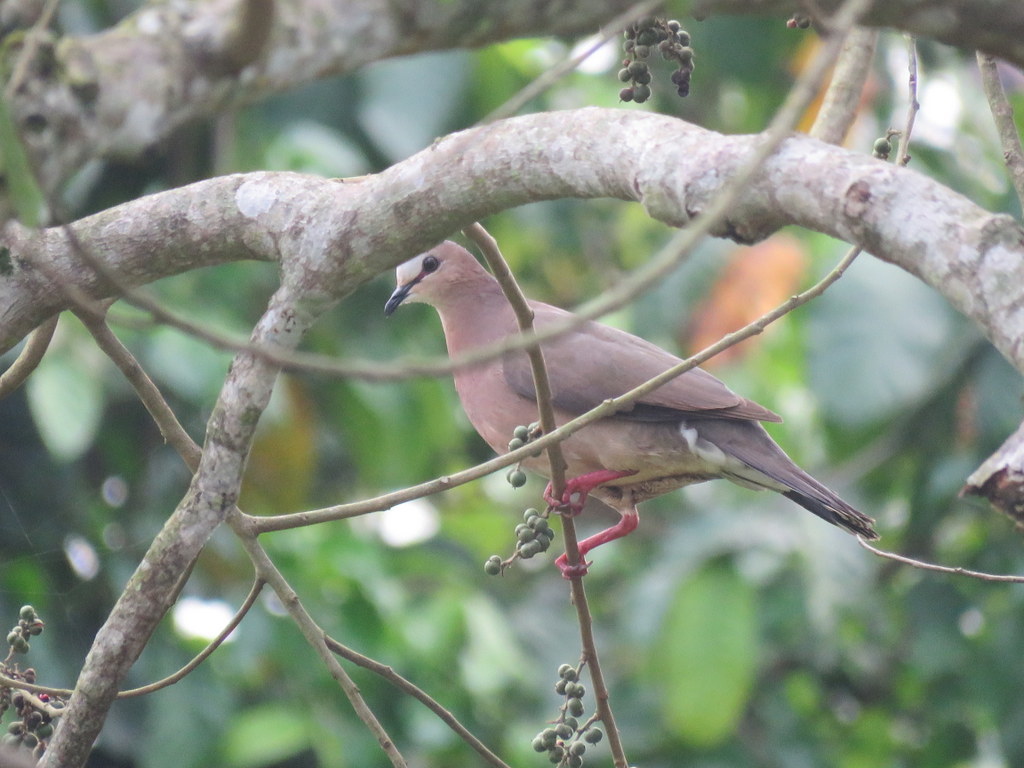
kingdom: Animalia
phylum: Chordata
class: Aves
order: Columbiformes
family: Columbidae
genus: Leptotila
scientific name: Leptotila rufaxilla
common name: Grey-fronted dove
